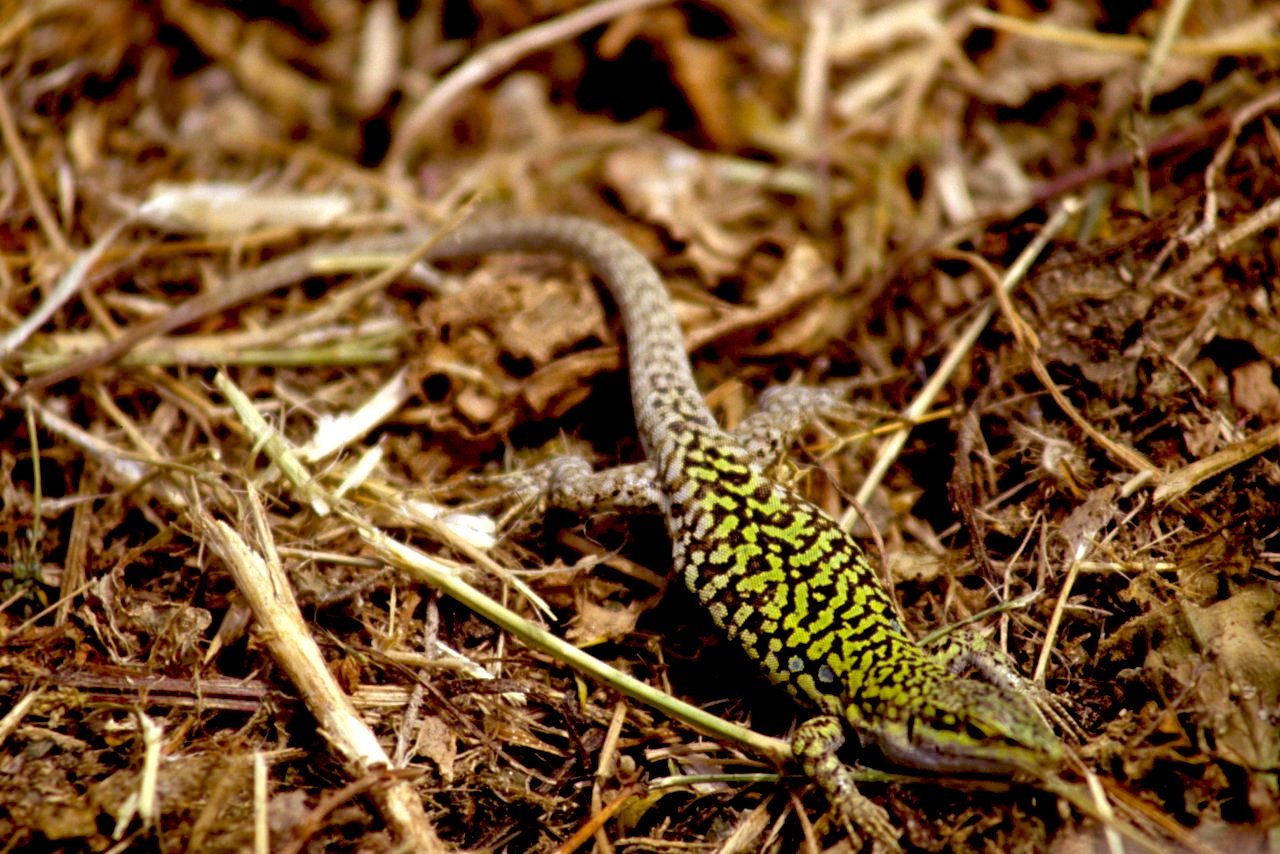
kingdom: Animalia
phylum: Chordata
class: Squamata
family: Lacertidae
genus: Podarcis
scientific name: Podarcis siculus
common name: Italian wall lizard
